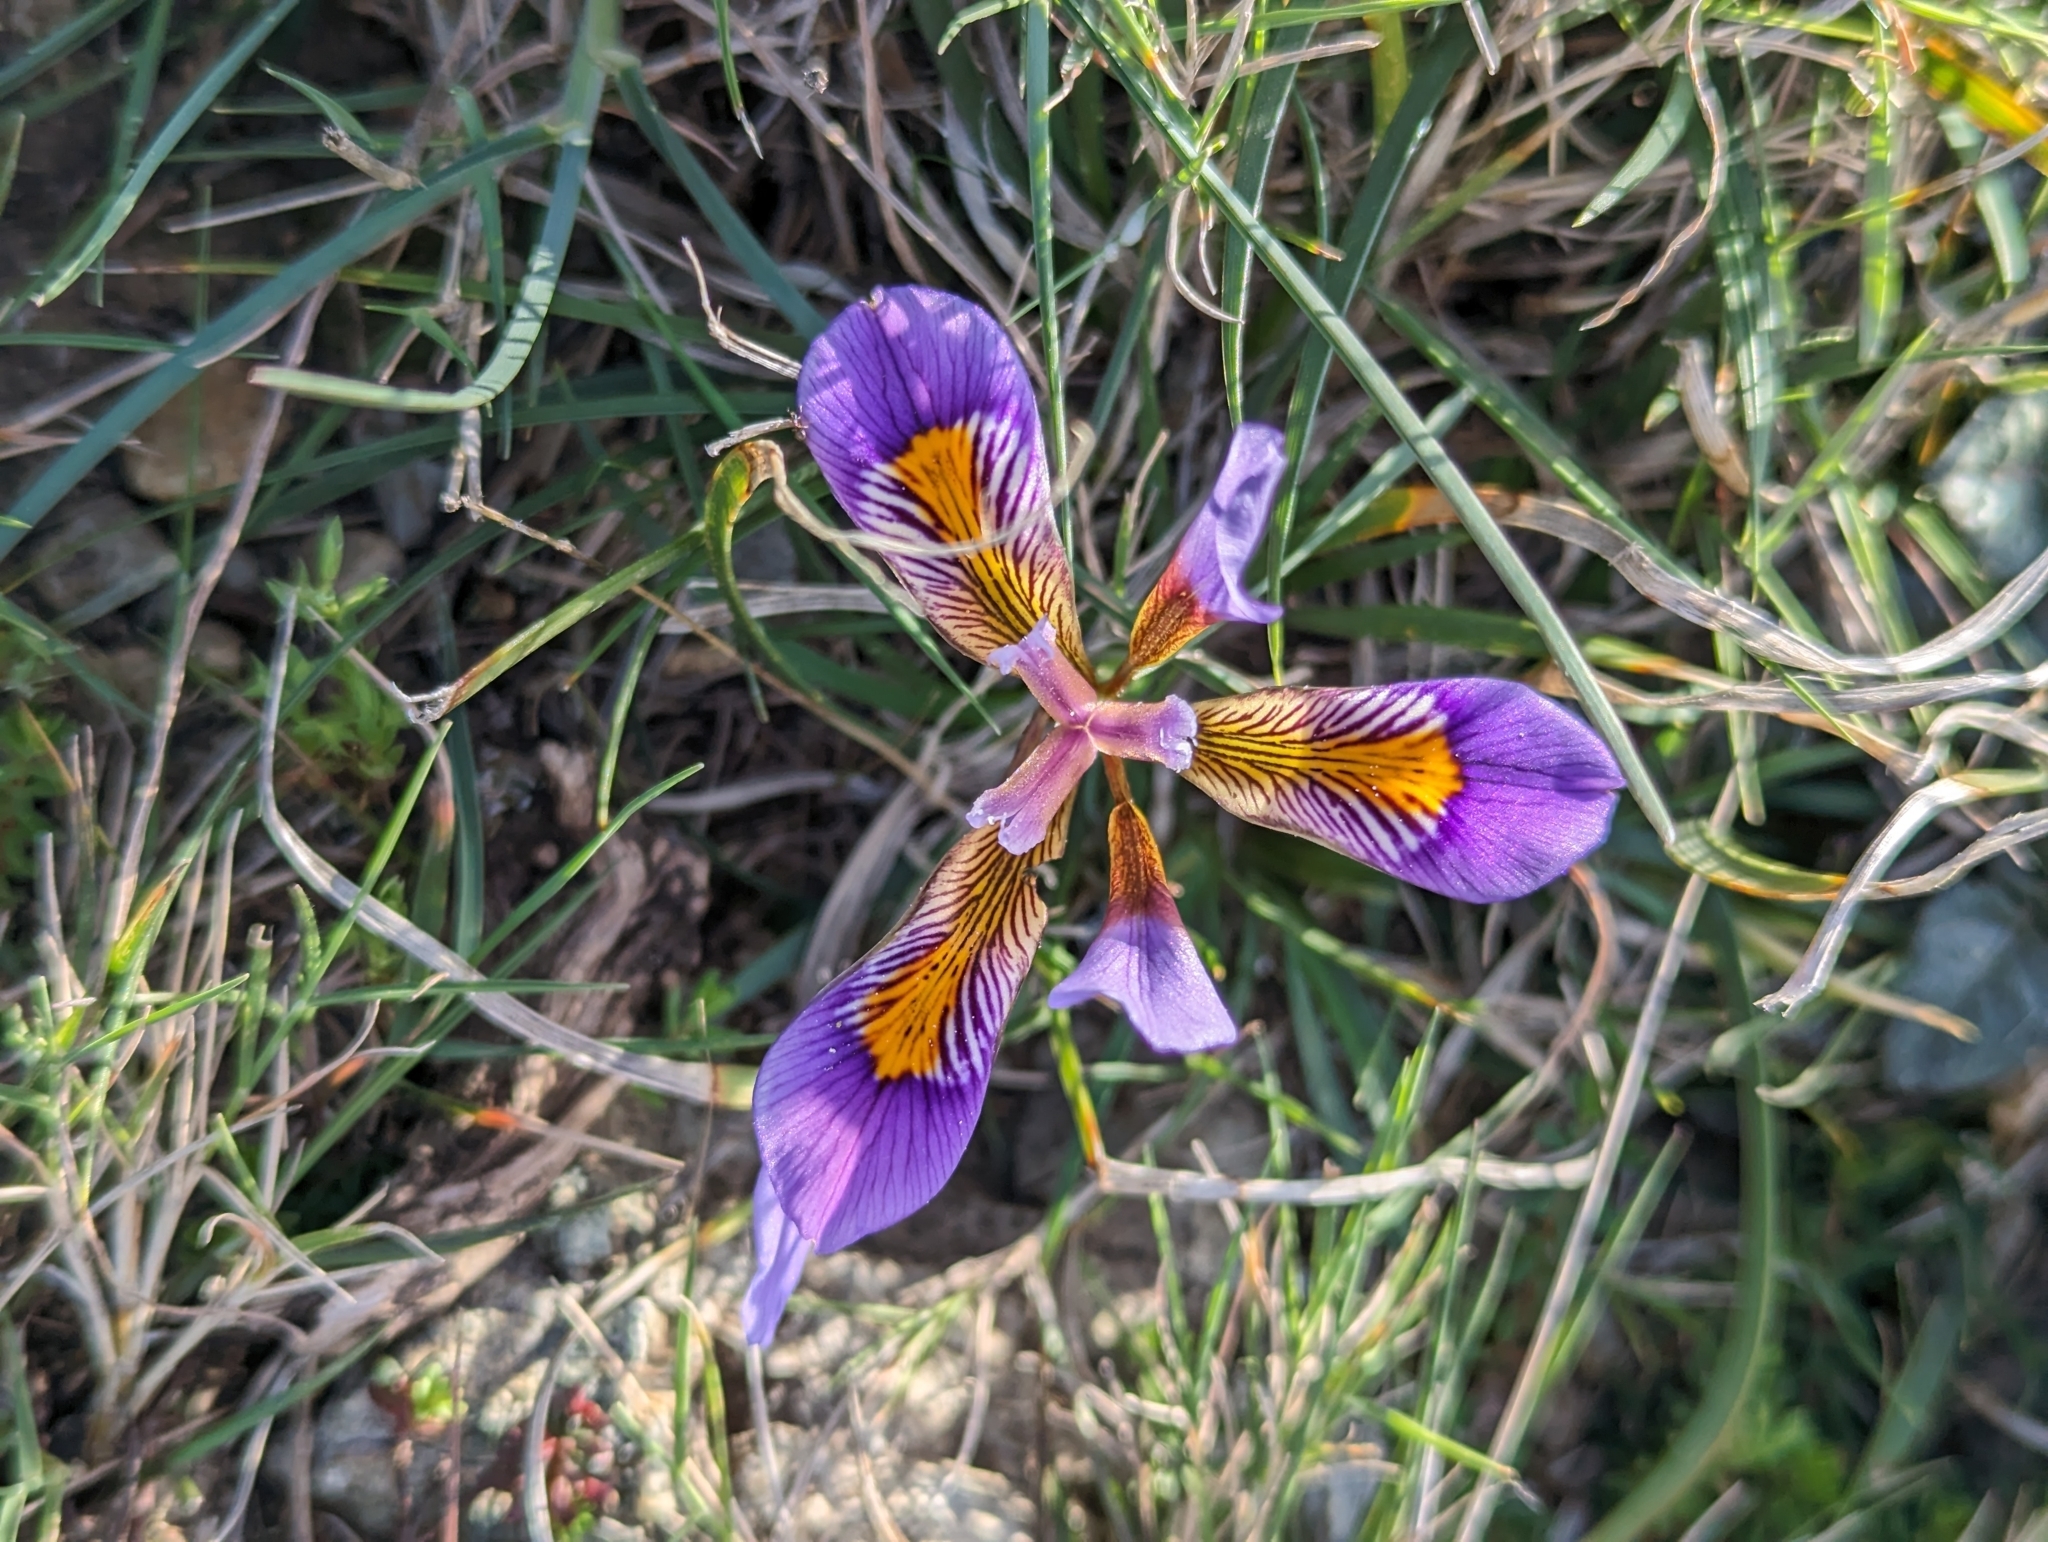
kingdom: Plantae
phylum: Tracheophyta
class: Liliopsida
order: Asparagales
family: Iridaceae
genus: Iris
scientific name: Iris unguicularis
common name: Algerian iris
